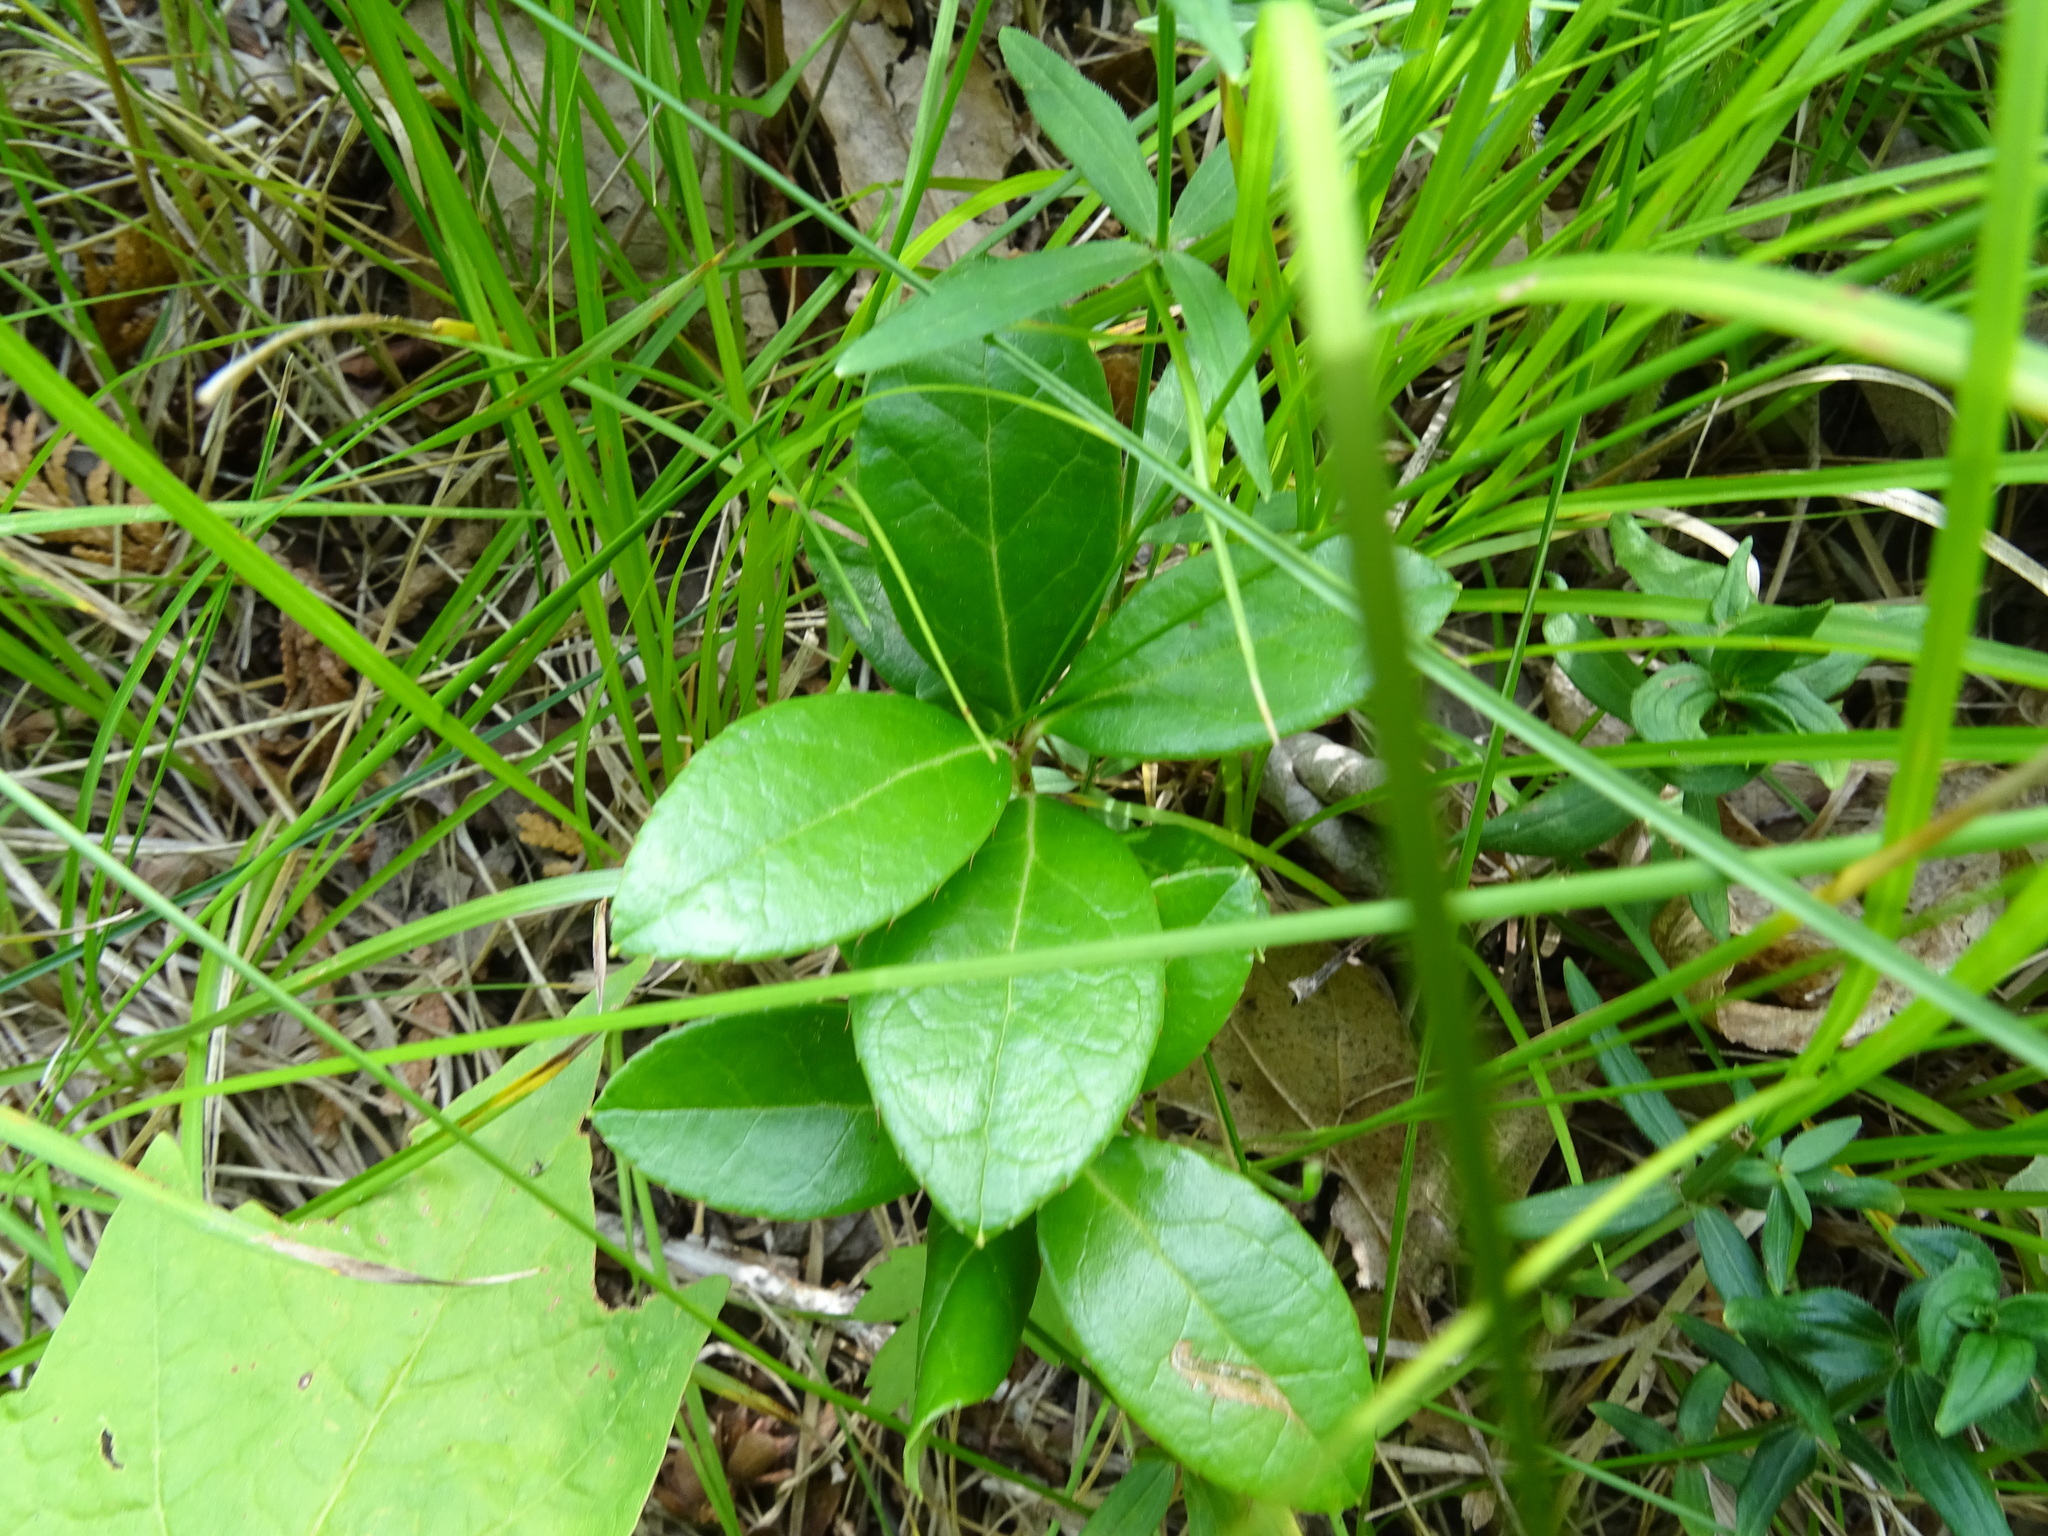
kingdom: Plantae
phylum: Tracheophyta
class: Magnoliopsida
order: Ericales
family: Ericaceae
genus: Gaultheria
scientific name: Gaultheria procumbens
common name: Checkerberry
